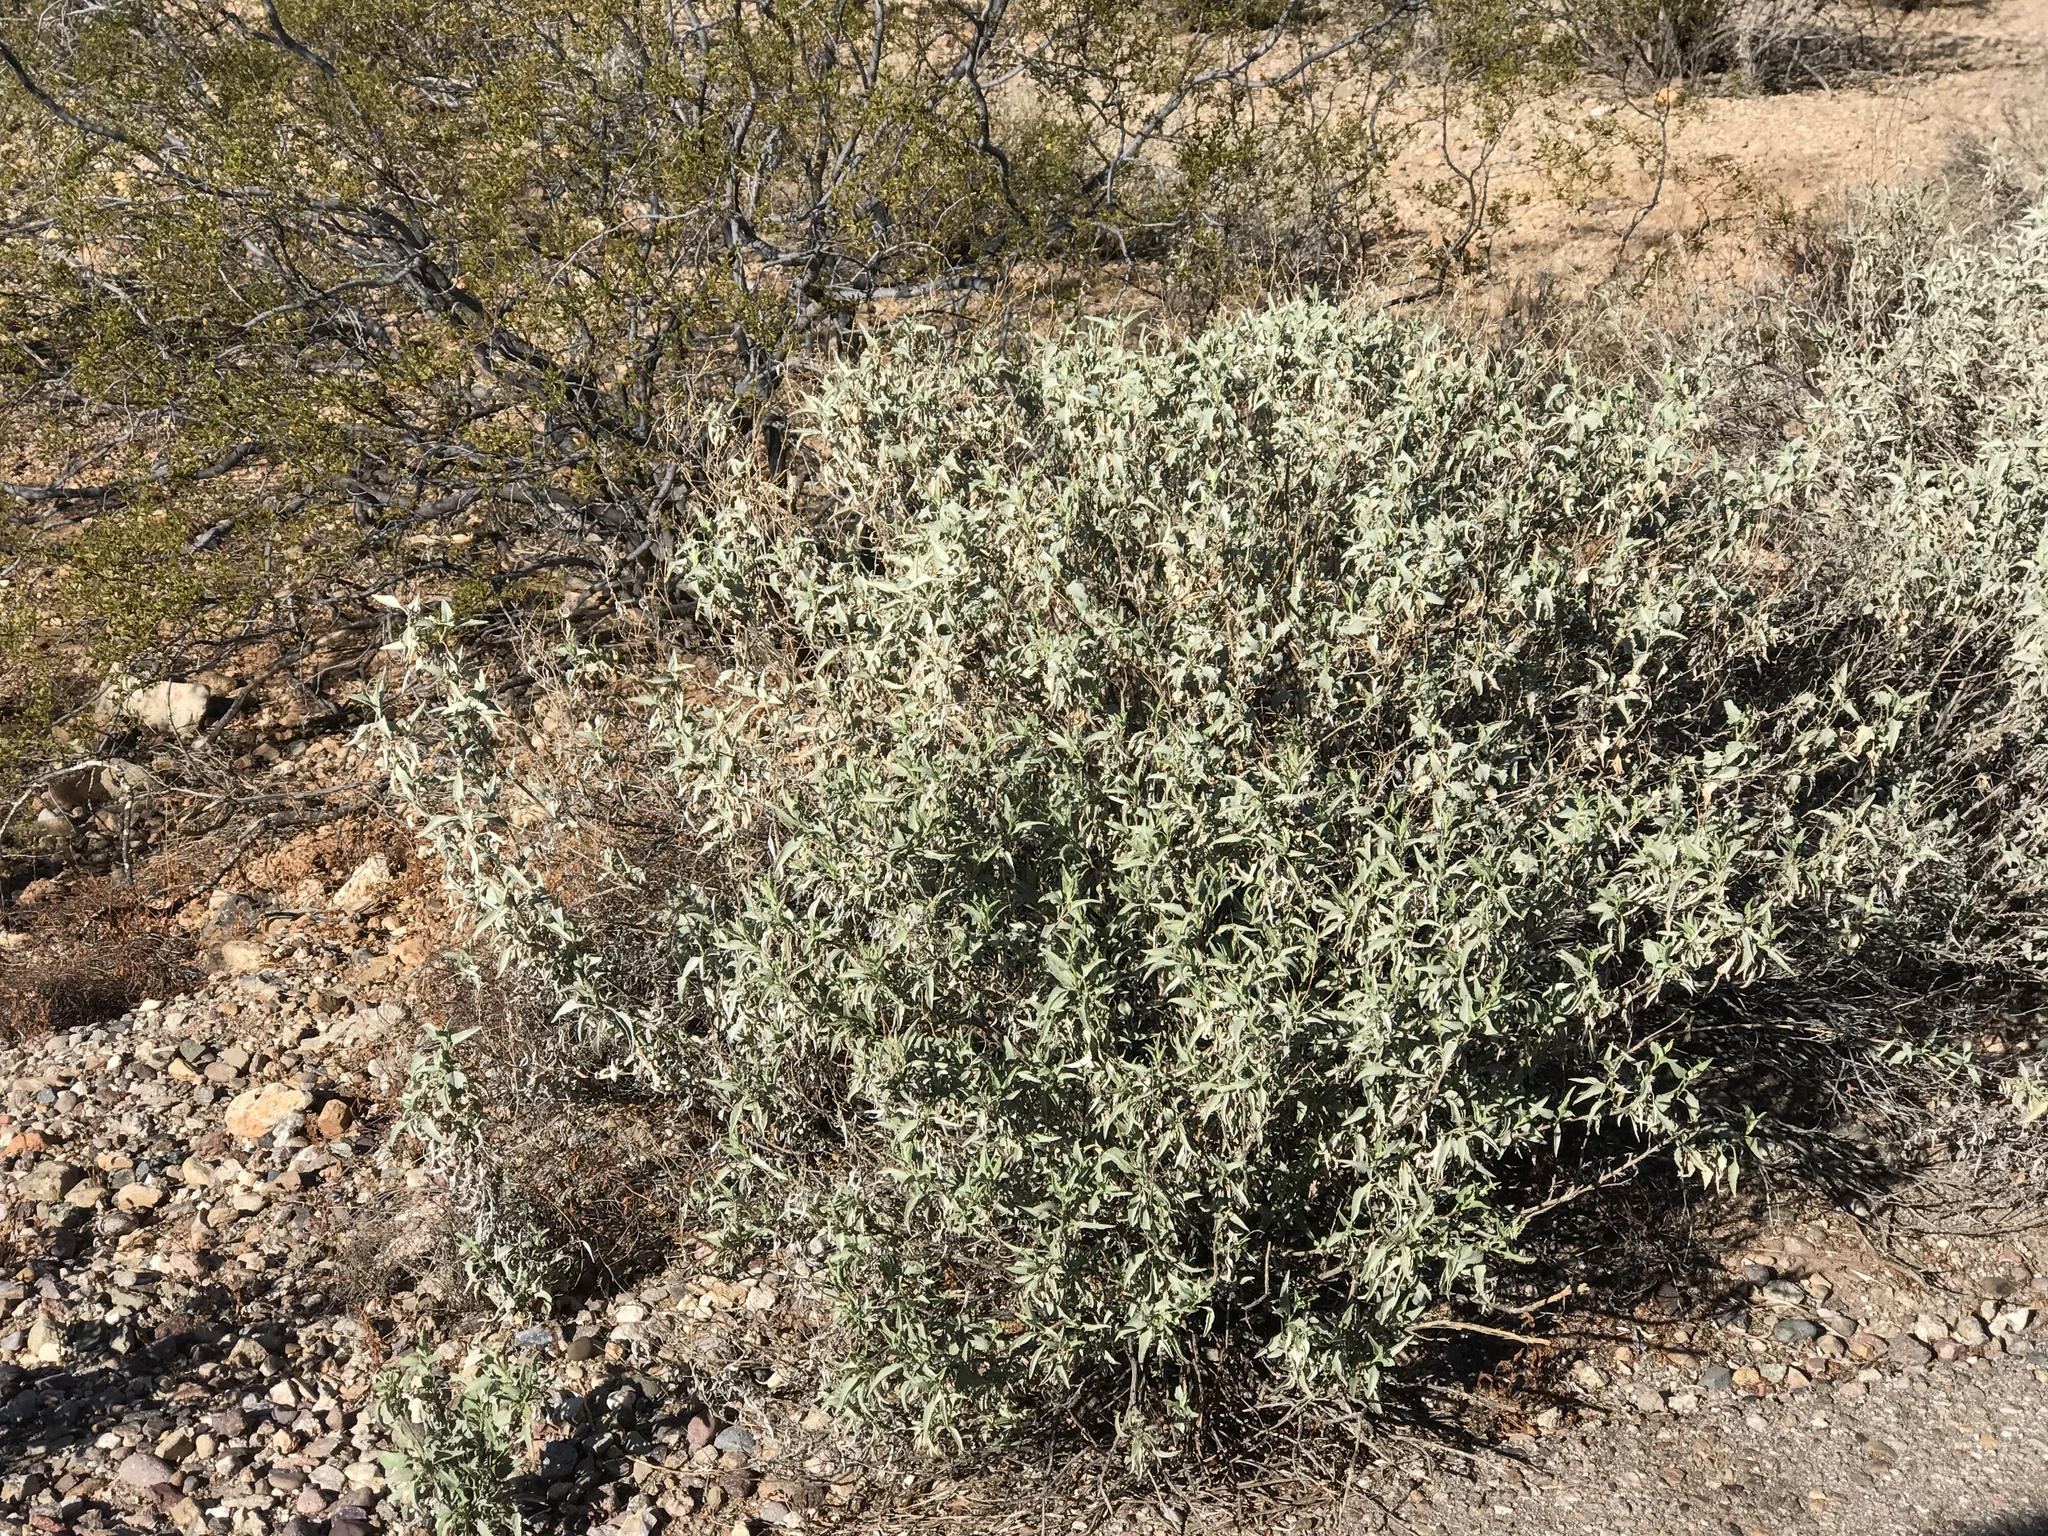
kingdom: Plantae
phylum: Tracheophyta
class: Magnoliopsida
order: Asterales
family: Asteraceae
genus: Ambrosia
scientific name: Ambrosia deltoidea
